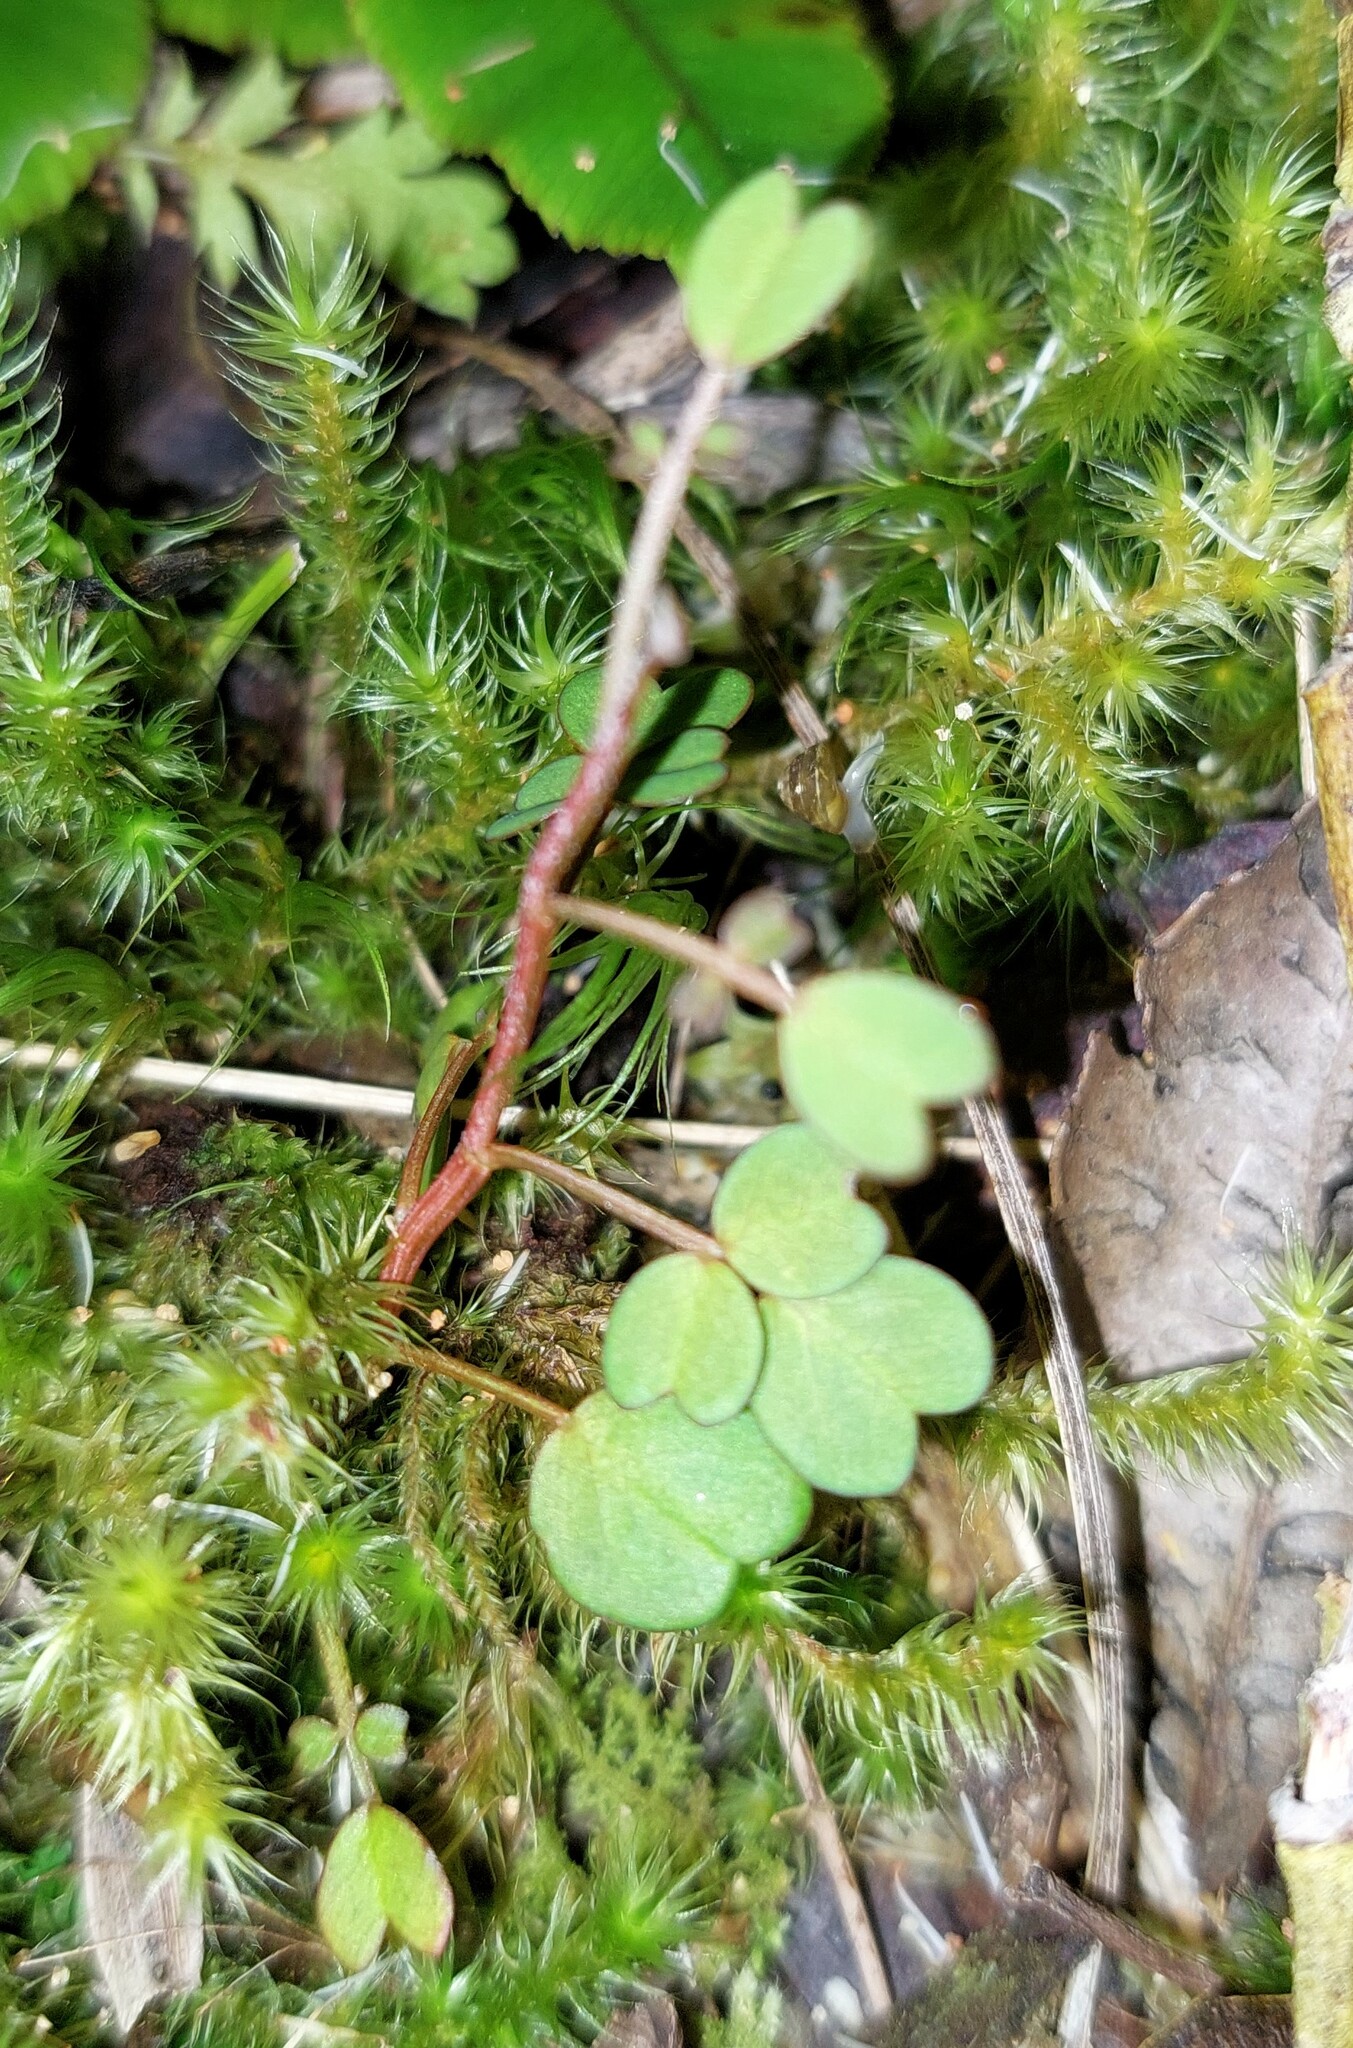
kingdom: Plantae
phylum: Tracheophyta
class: Magnoliopsida
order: Fabales
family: Fabaceae
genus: Carmichaelia
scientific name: Carmichaelia australis
